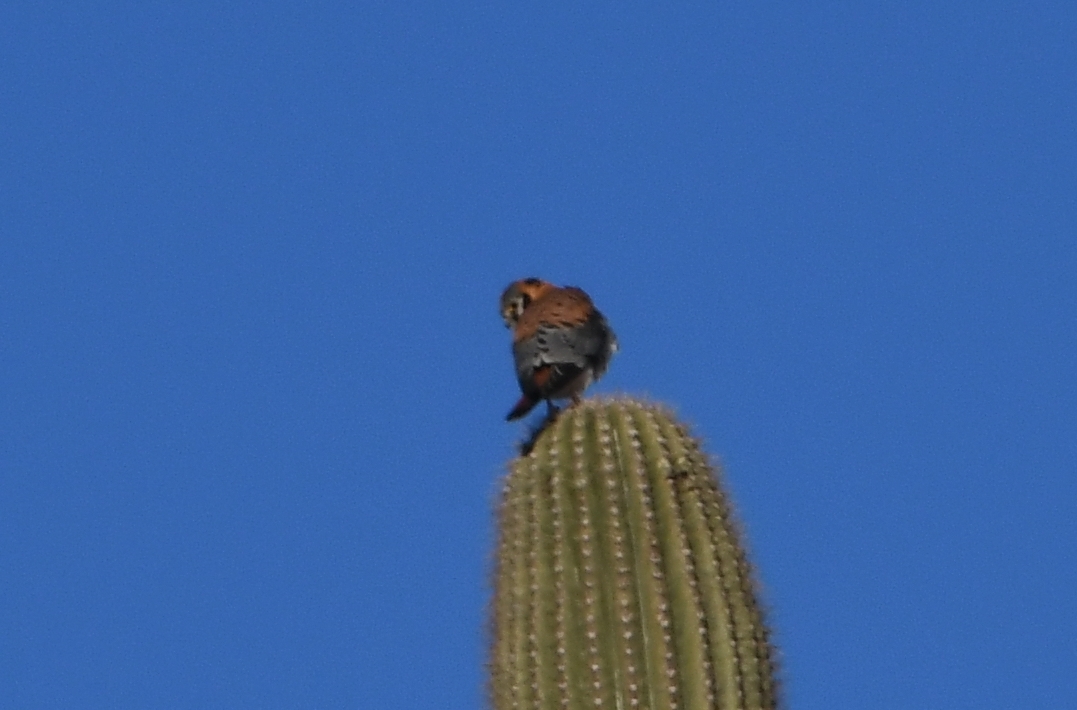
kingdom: Animalia
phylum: Chordata
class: Aves
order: Falconiformes
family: Falconidae
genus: Falco
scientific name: Falco sparverius
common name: American kestrel
